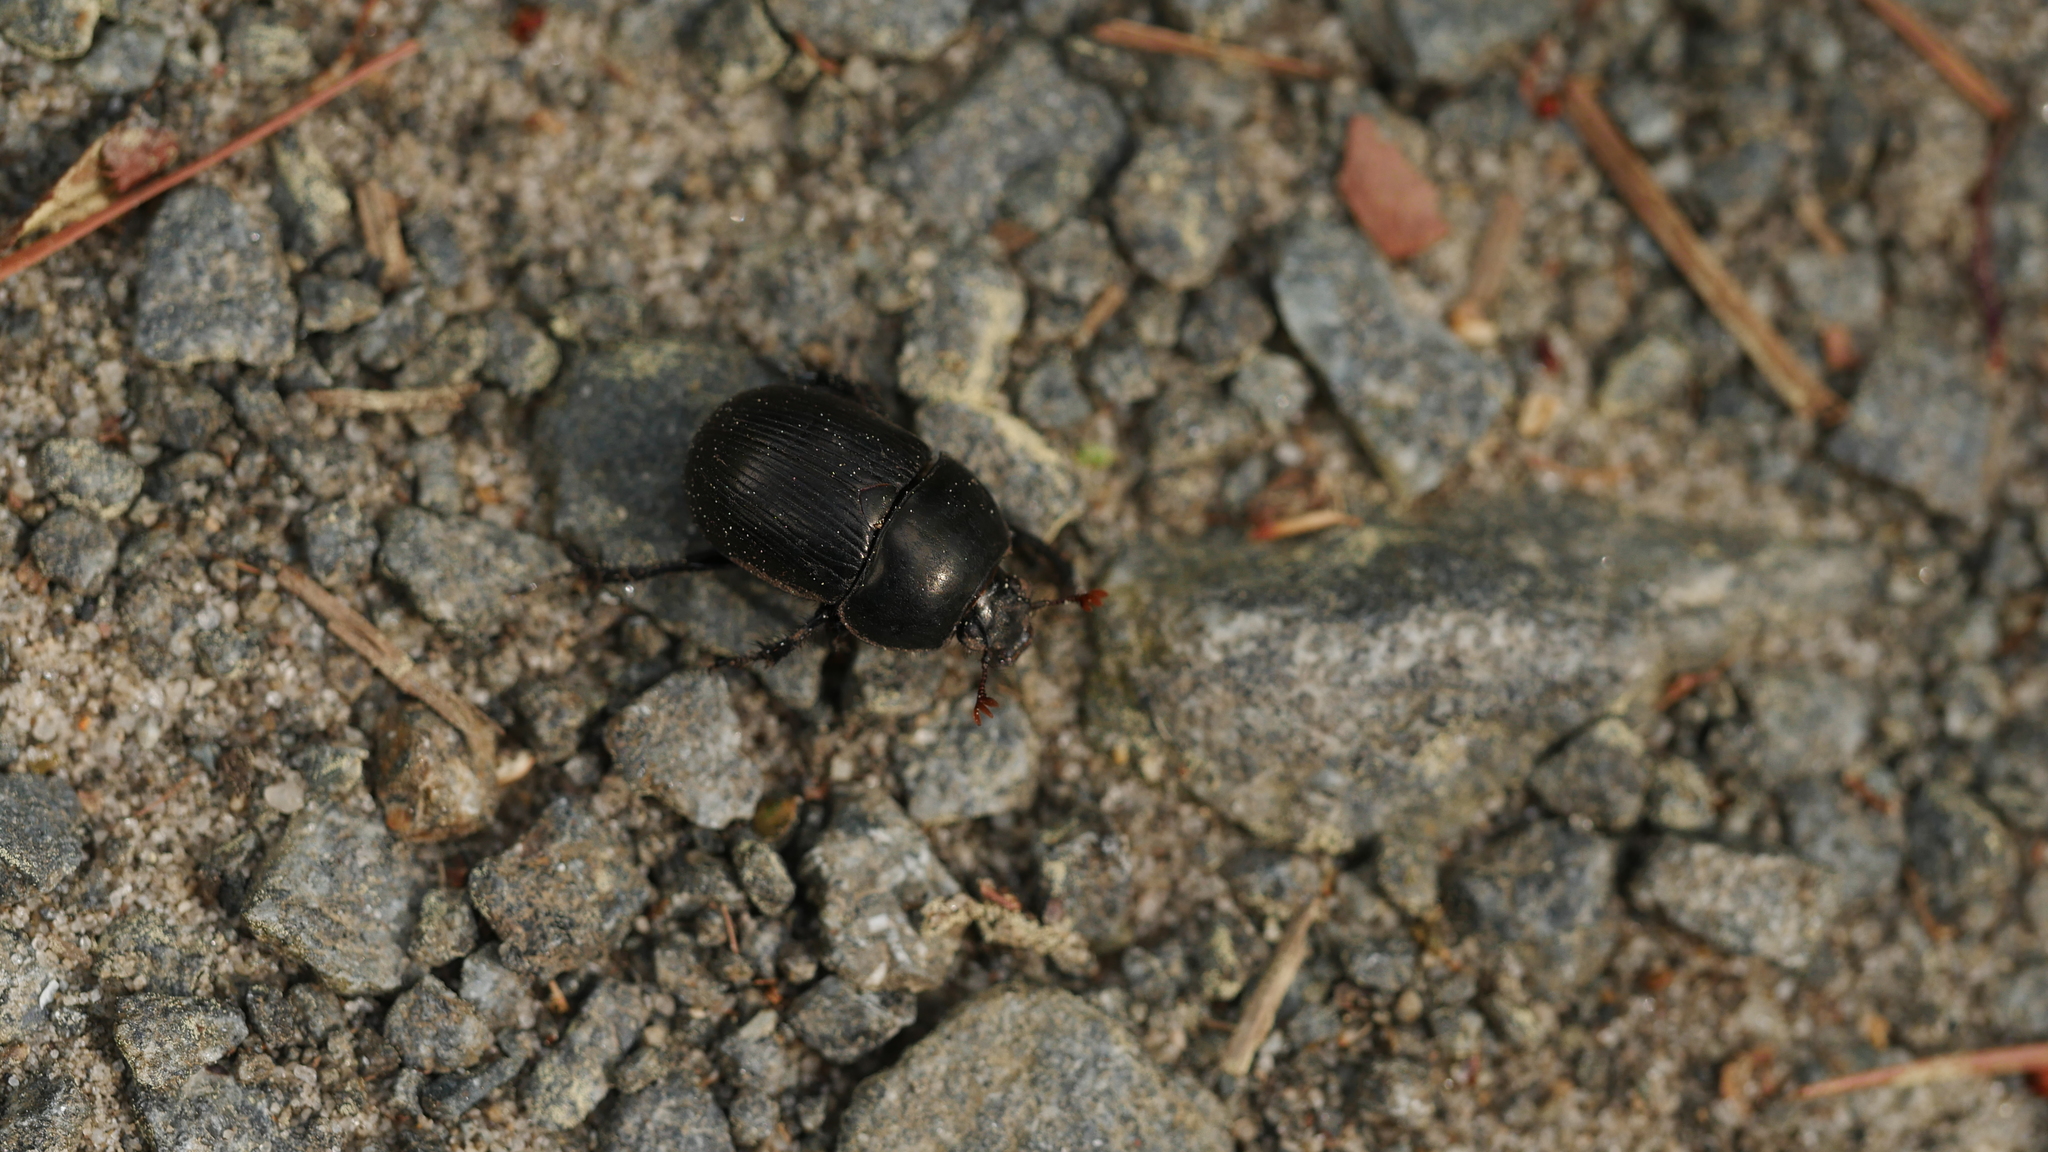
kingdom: Animalia
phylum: Arthropoda
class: Insecta
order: Coleoptera
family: Geotrupidae
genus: Cnemotrupes
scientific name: Cnemotrupes semiopacus
